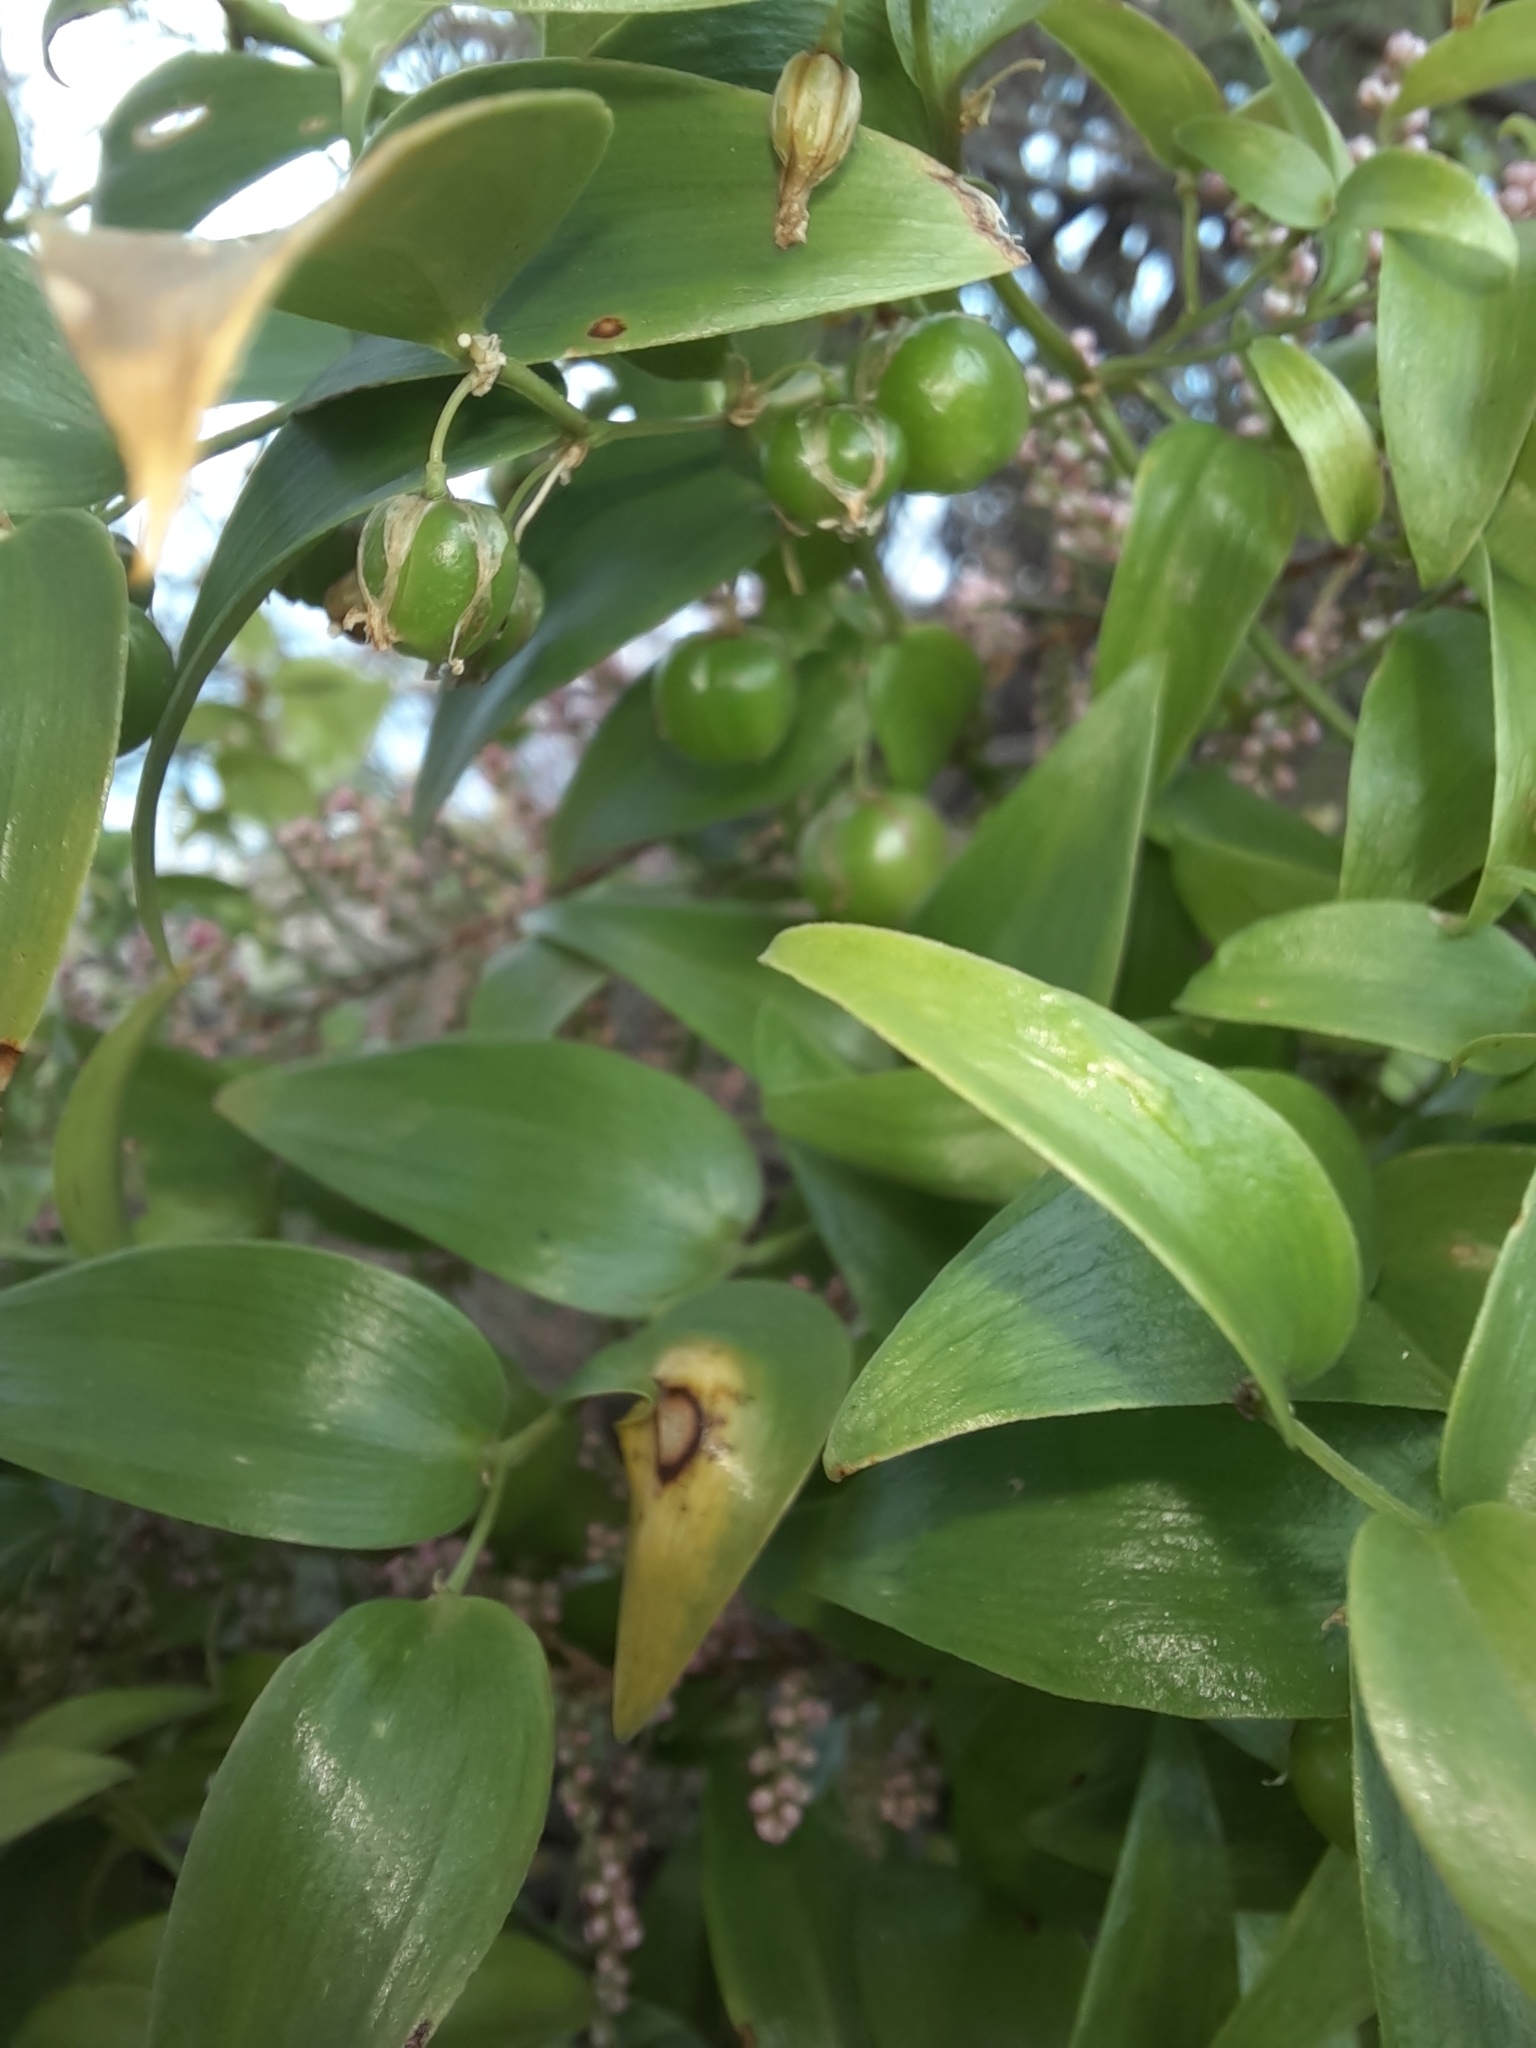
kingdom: Plantae
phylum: Tracheophyta
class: Liliopsida
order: Asparagales
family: Asparagaceae
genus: Asparagus
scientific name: Asparagus asparagoides
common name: African asparagus fern
